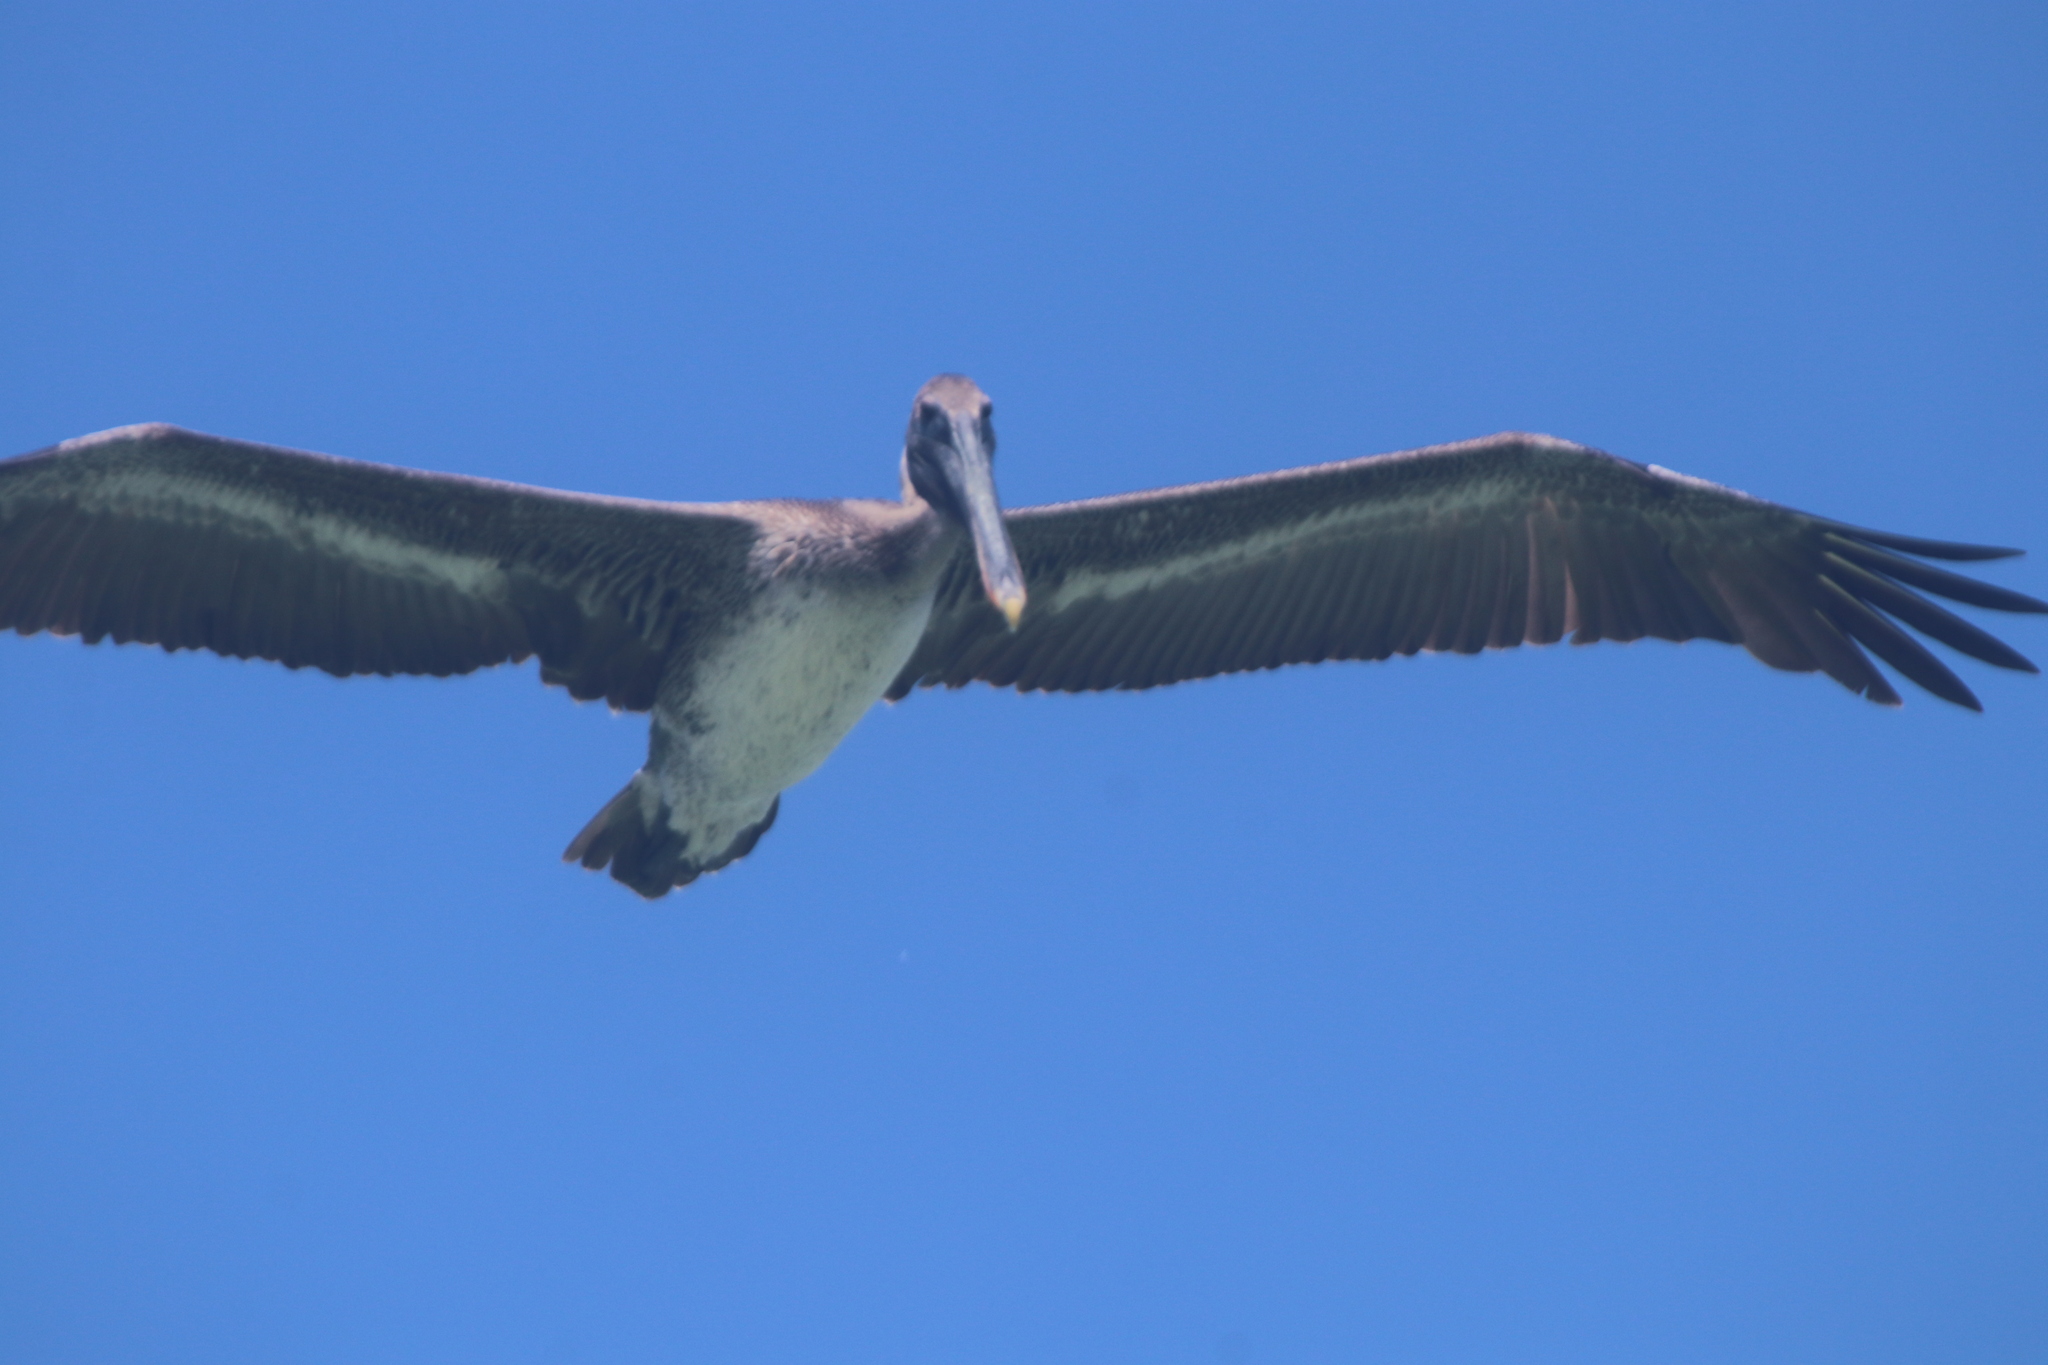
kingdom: Animalia
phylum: Chordata
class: Aves
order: Pelecaniformes
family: Pelecanidae
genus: Pelecanus
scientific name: Pelecanus occidentalis
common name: Brown pelican
